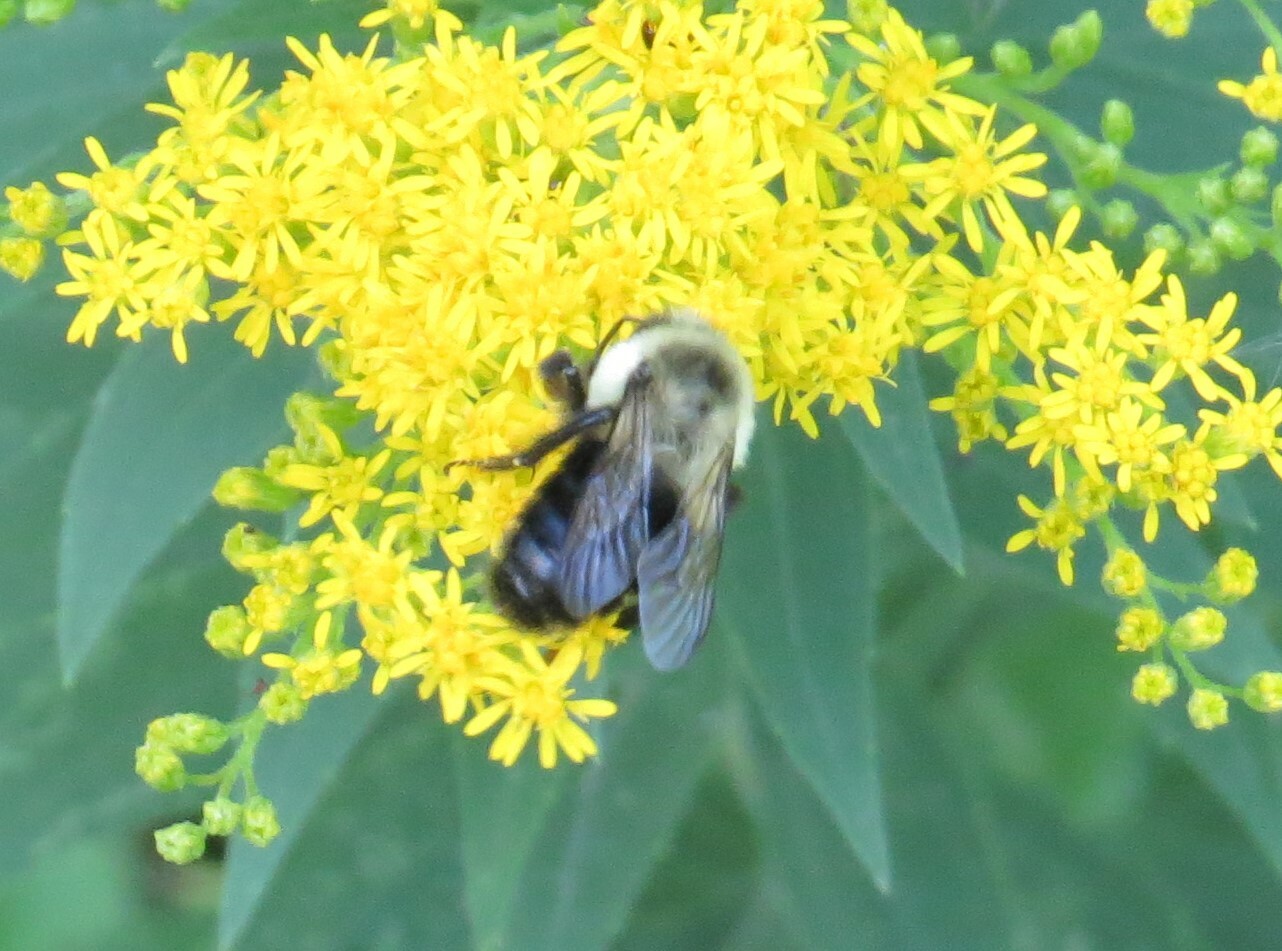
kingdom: Animalia
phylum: Arthropoda
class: Insecta
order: Hymenoptera
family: Apidae
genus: Bombus
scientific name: Bombus impatiens
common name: Common eastern bumble bee
